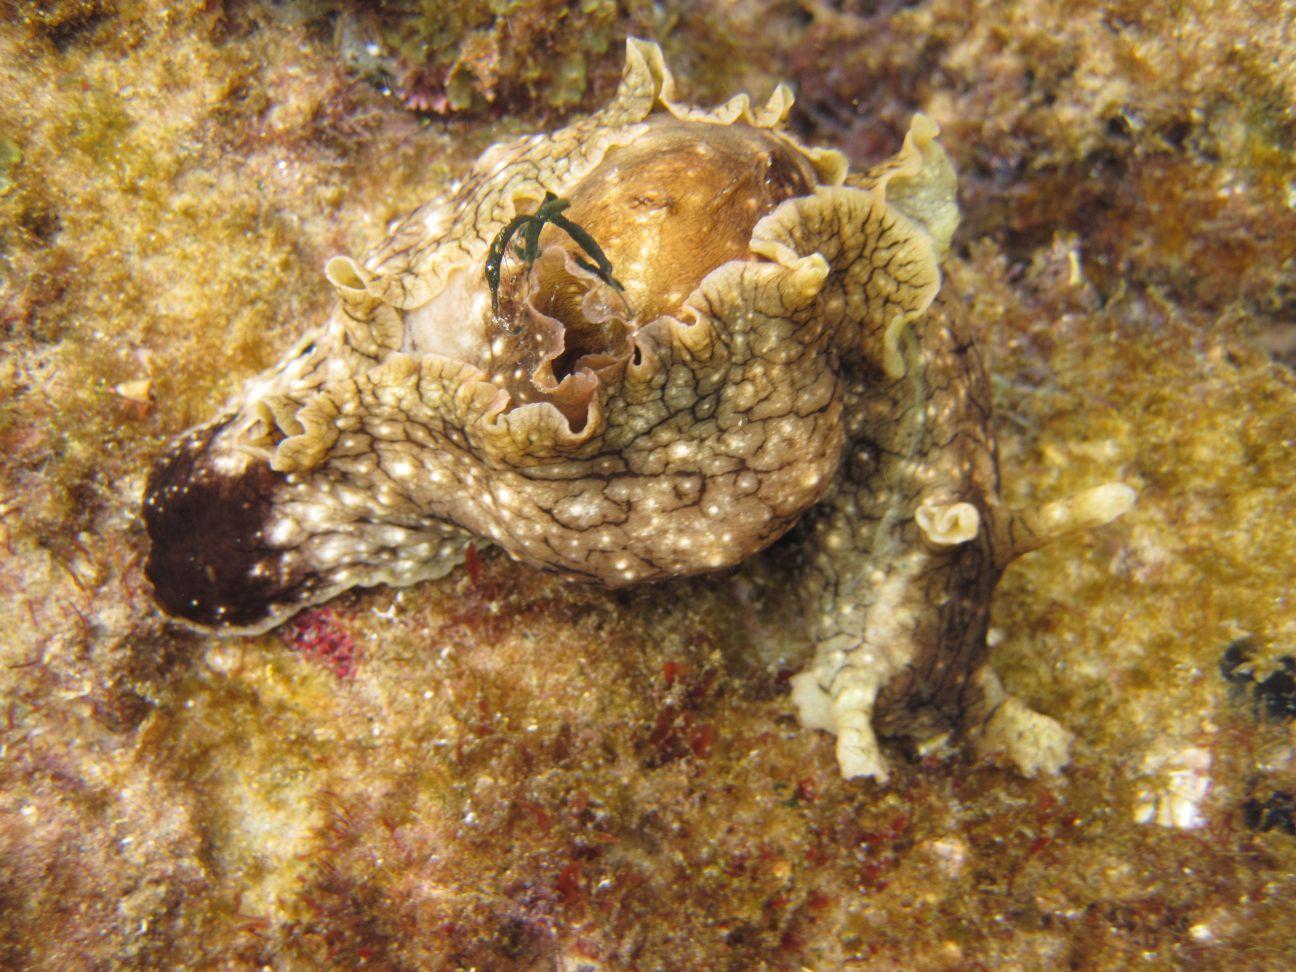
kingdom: Animalia
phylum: Mollusca
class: Gastropoda
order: Aplysiida
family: Aplysiidae
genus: Aplysia
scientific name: Aplysia argus
